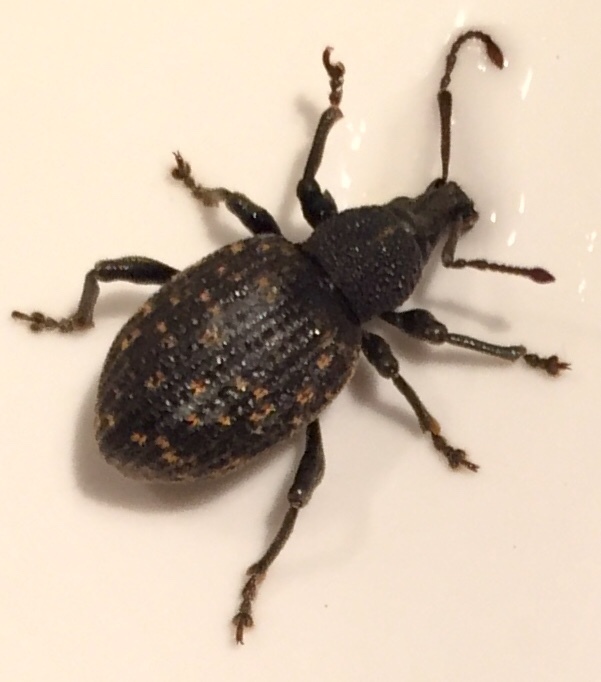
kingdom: Animalia
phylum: Arthropoda
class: Insecta
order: Coleoptera
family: Curculionidae
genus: Otiorhynchus
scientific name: Otiorhynchus sulcatus
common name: Black vine weevil
